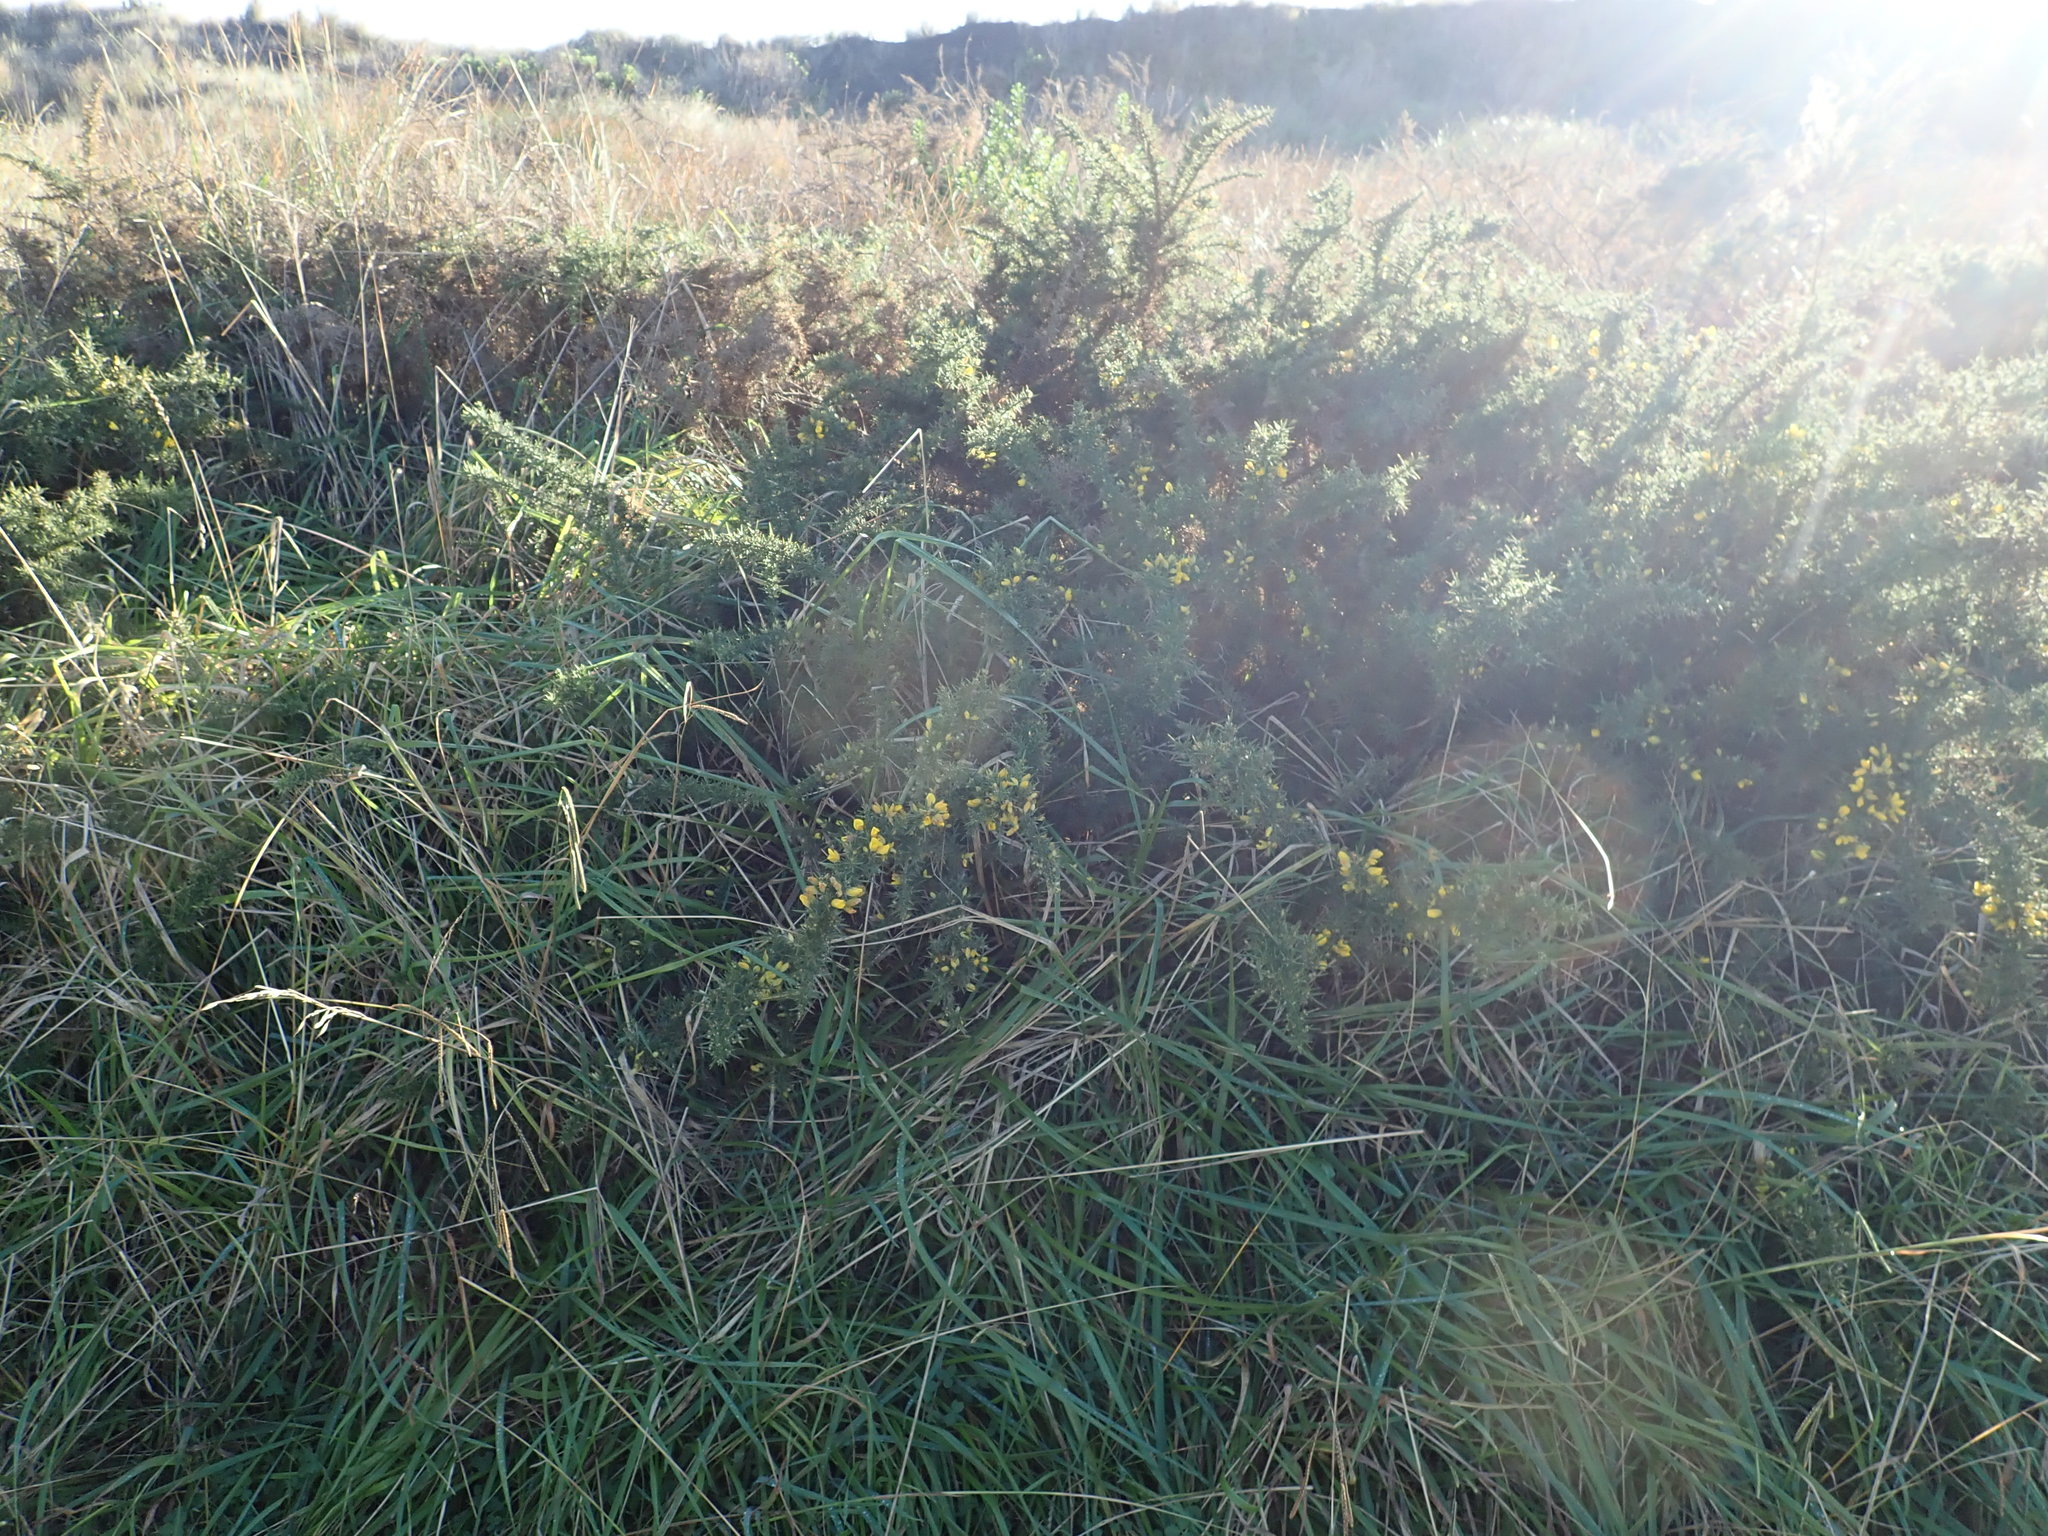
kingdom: Plantae
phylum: Tracheophyta
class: Magnoliopsida
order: Fabales
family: Fabaceae
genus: Ulex
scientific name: Ulex europaeus
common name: Common gorse
